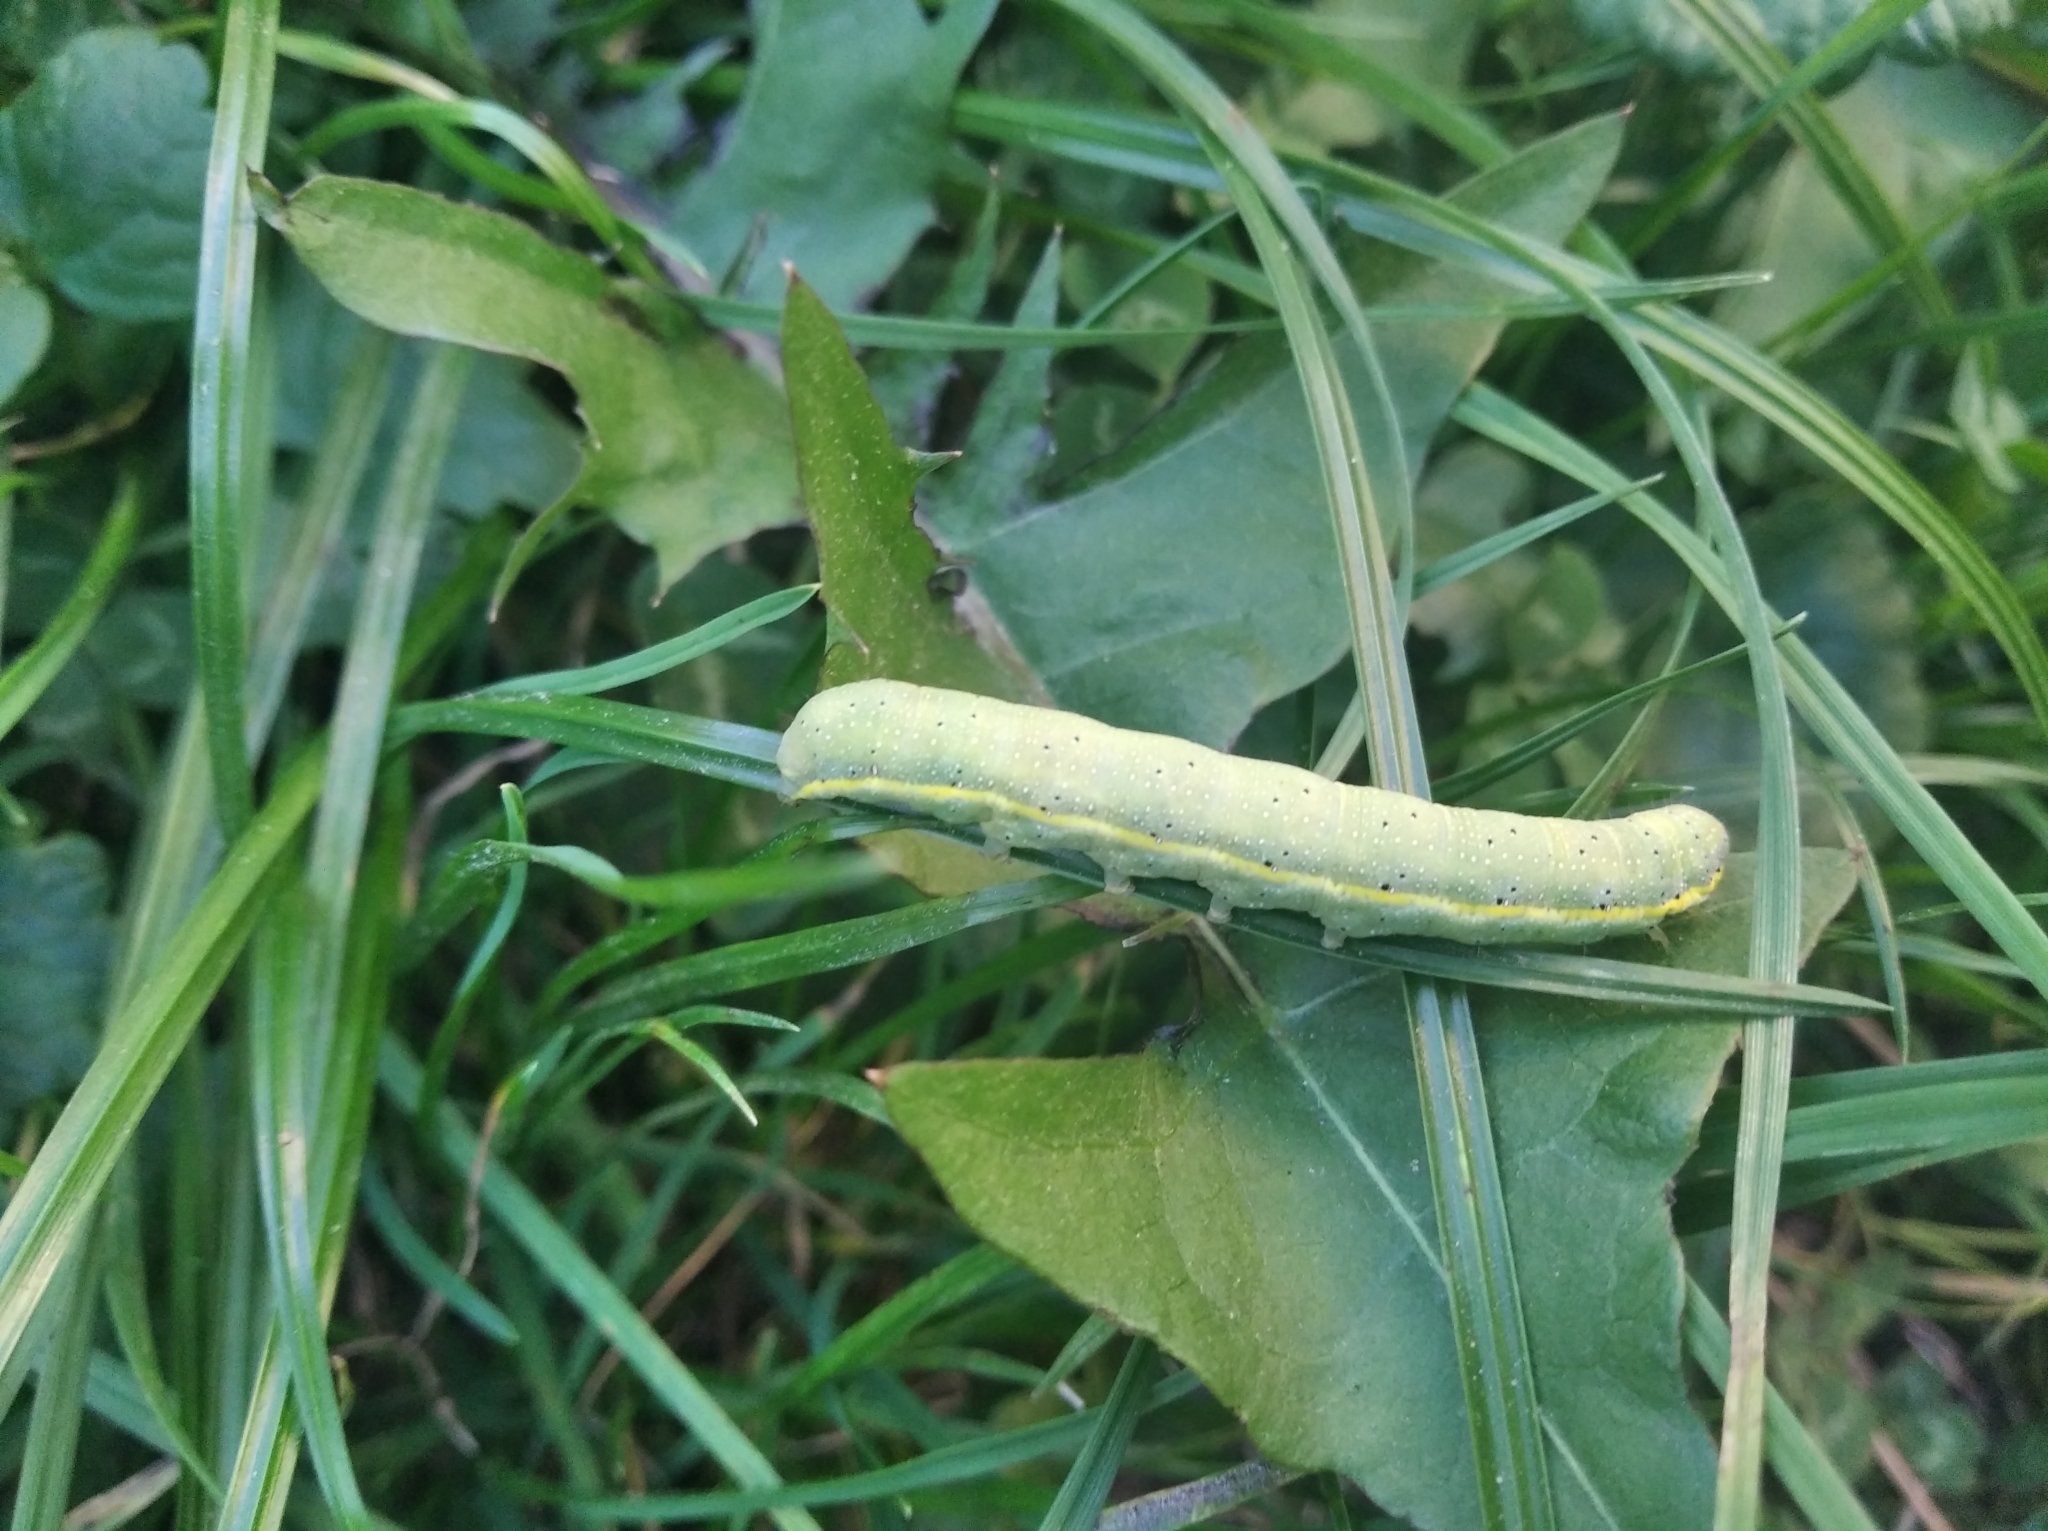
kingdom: Animalia
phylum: Arthropoda
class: Insecta
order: Lepidoptera
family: Noctuidae
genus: Lacanobia
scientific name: Lacanobia oleracea
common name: Bright-line brown-eye
